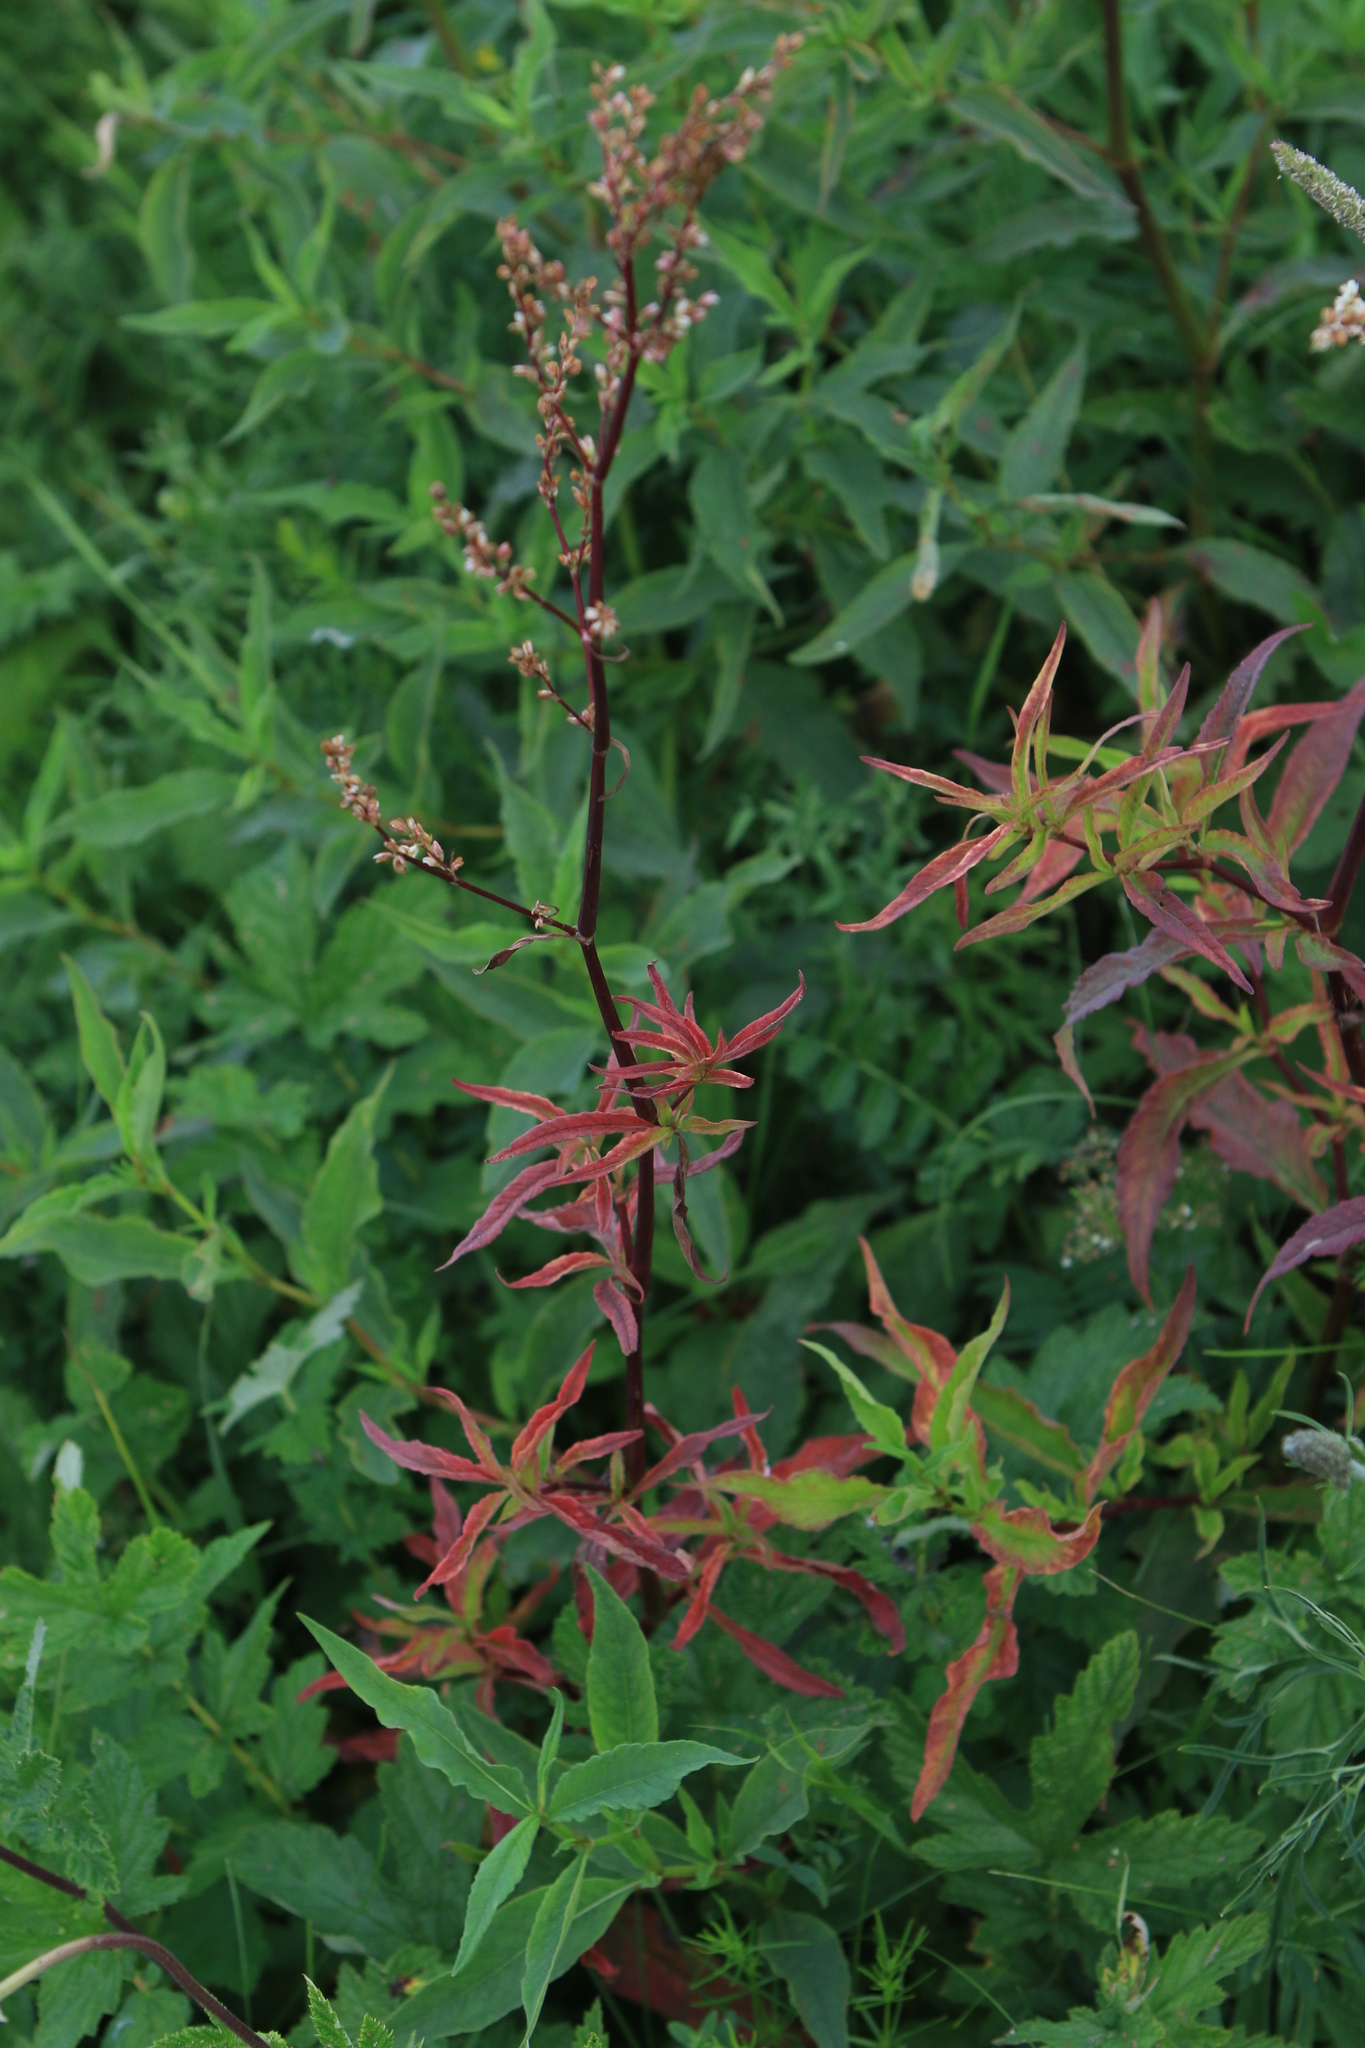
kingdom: Plantae
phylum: Tracheophyta
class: Magnoliopsida
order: Caryophyllales
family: Polygonaceae
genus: Koenigia
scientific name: Koenigia alpina
